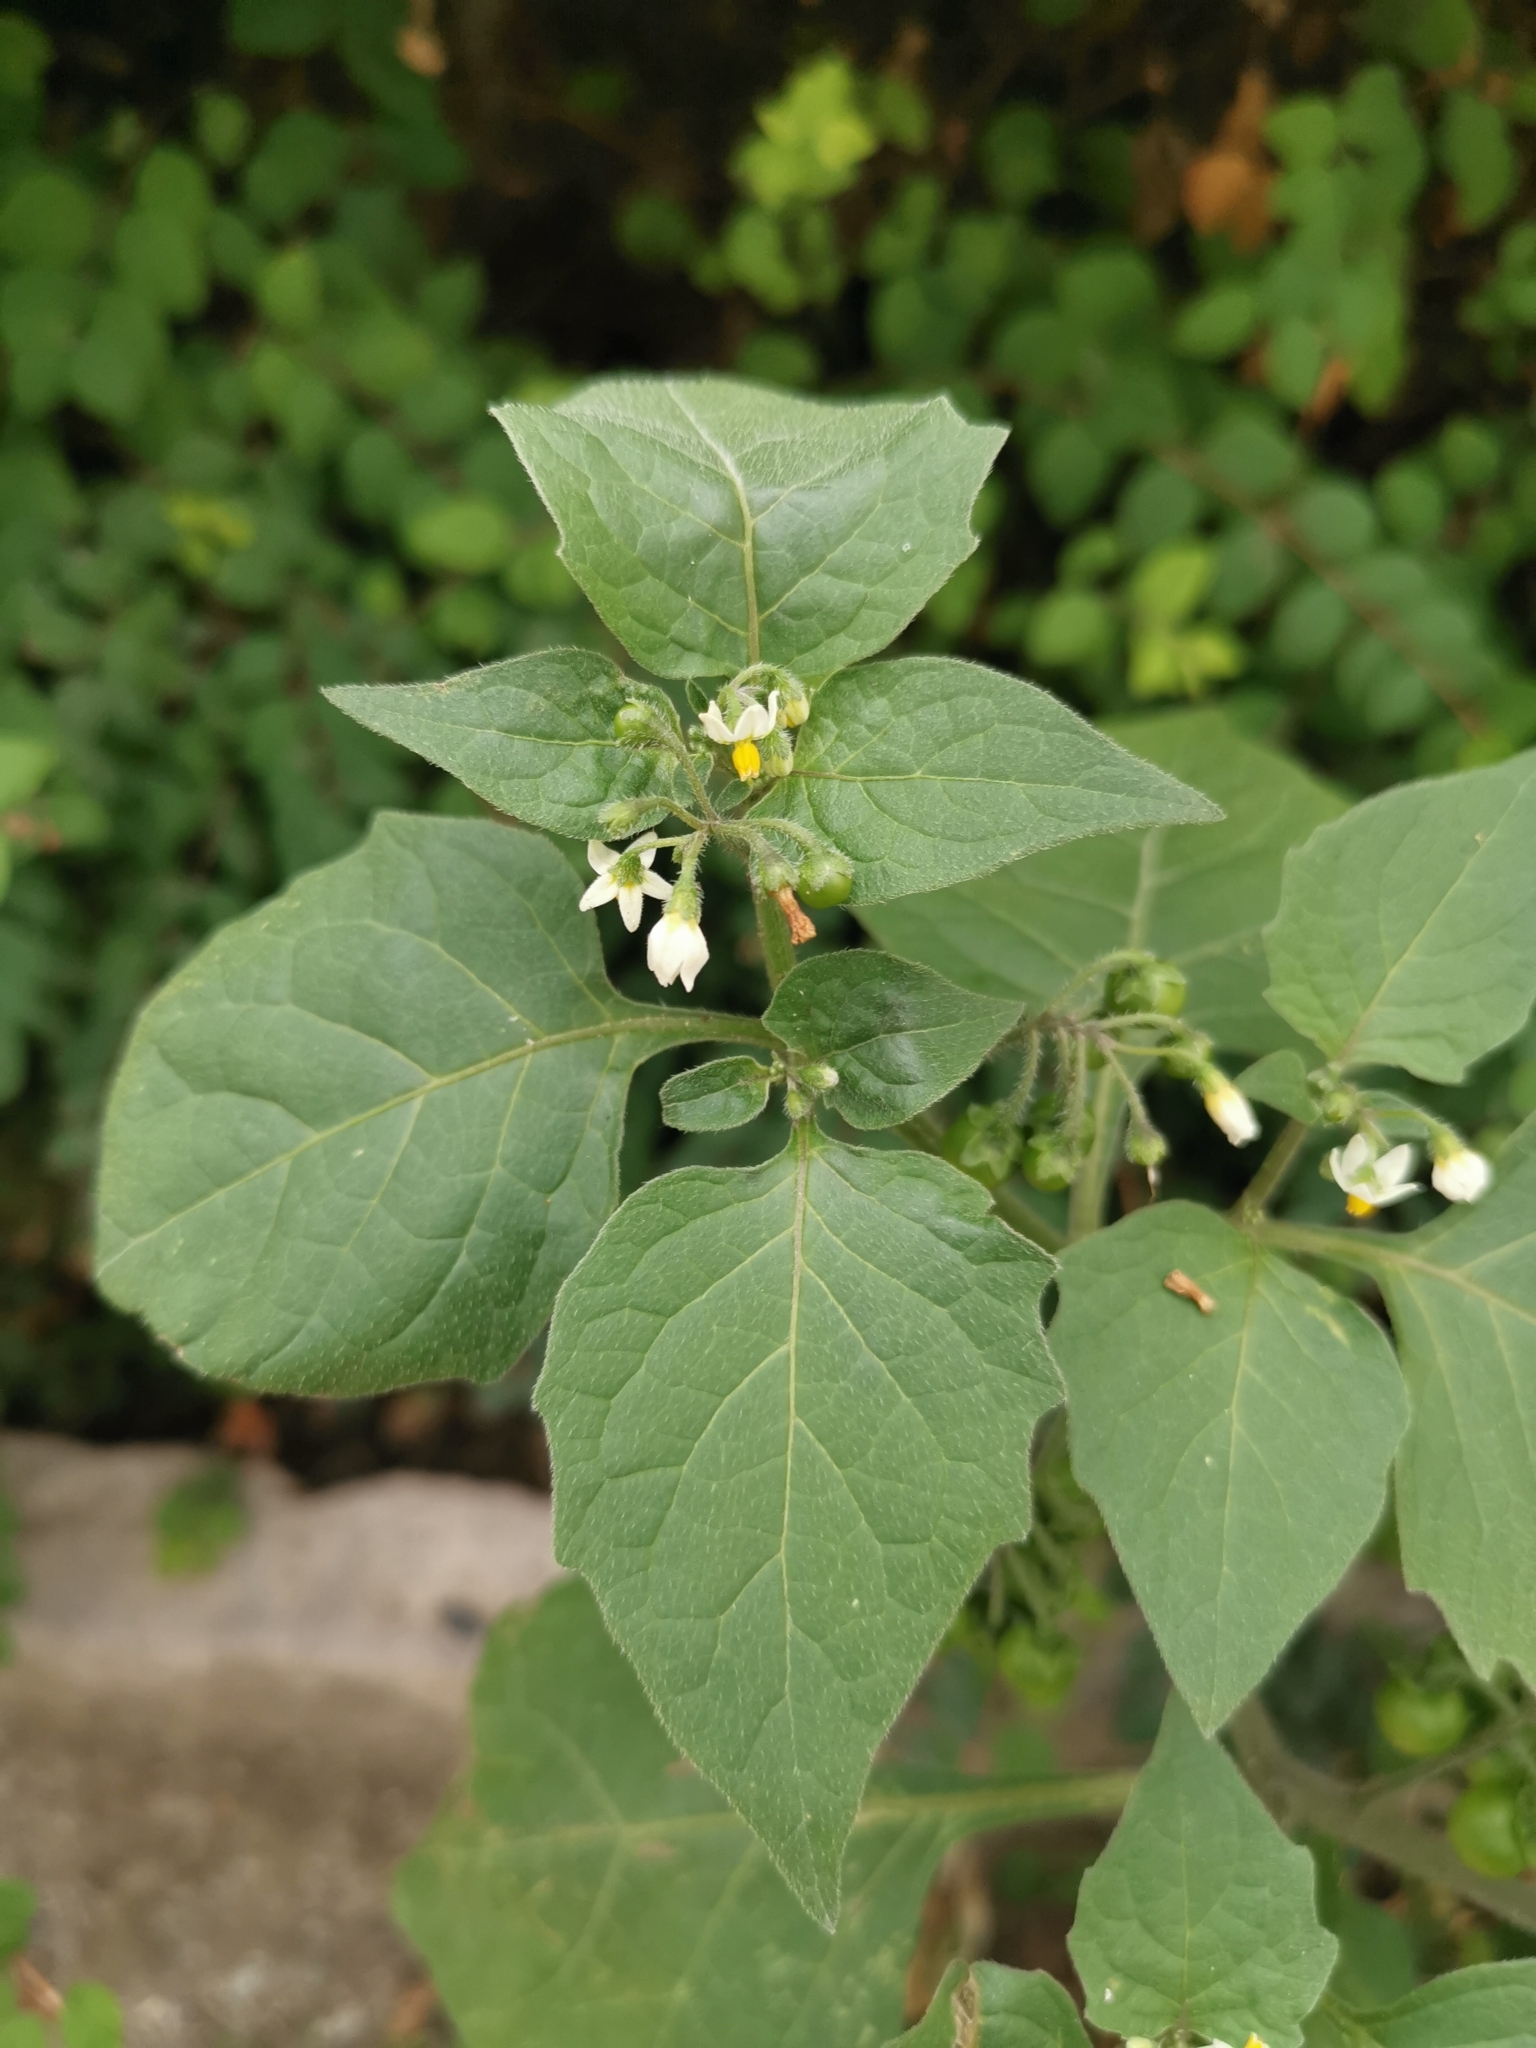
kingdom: Plantae
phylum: Tracheophyta
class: Magnoliopsida
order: Solanales
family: Solanaceae
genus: Solanum
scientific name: Solanum nigrum
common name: Black nightshade
